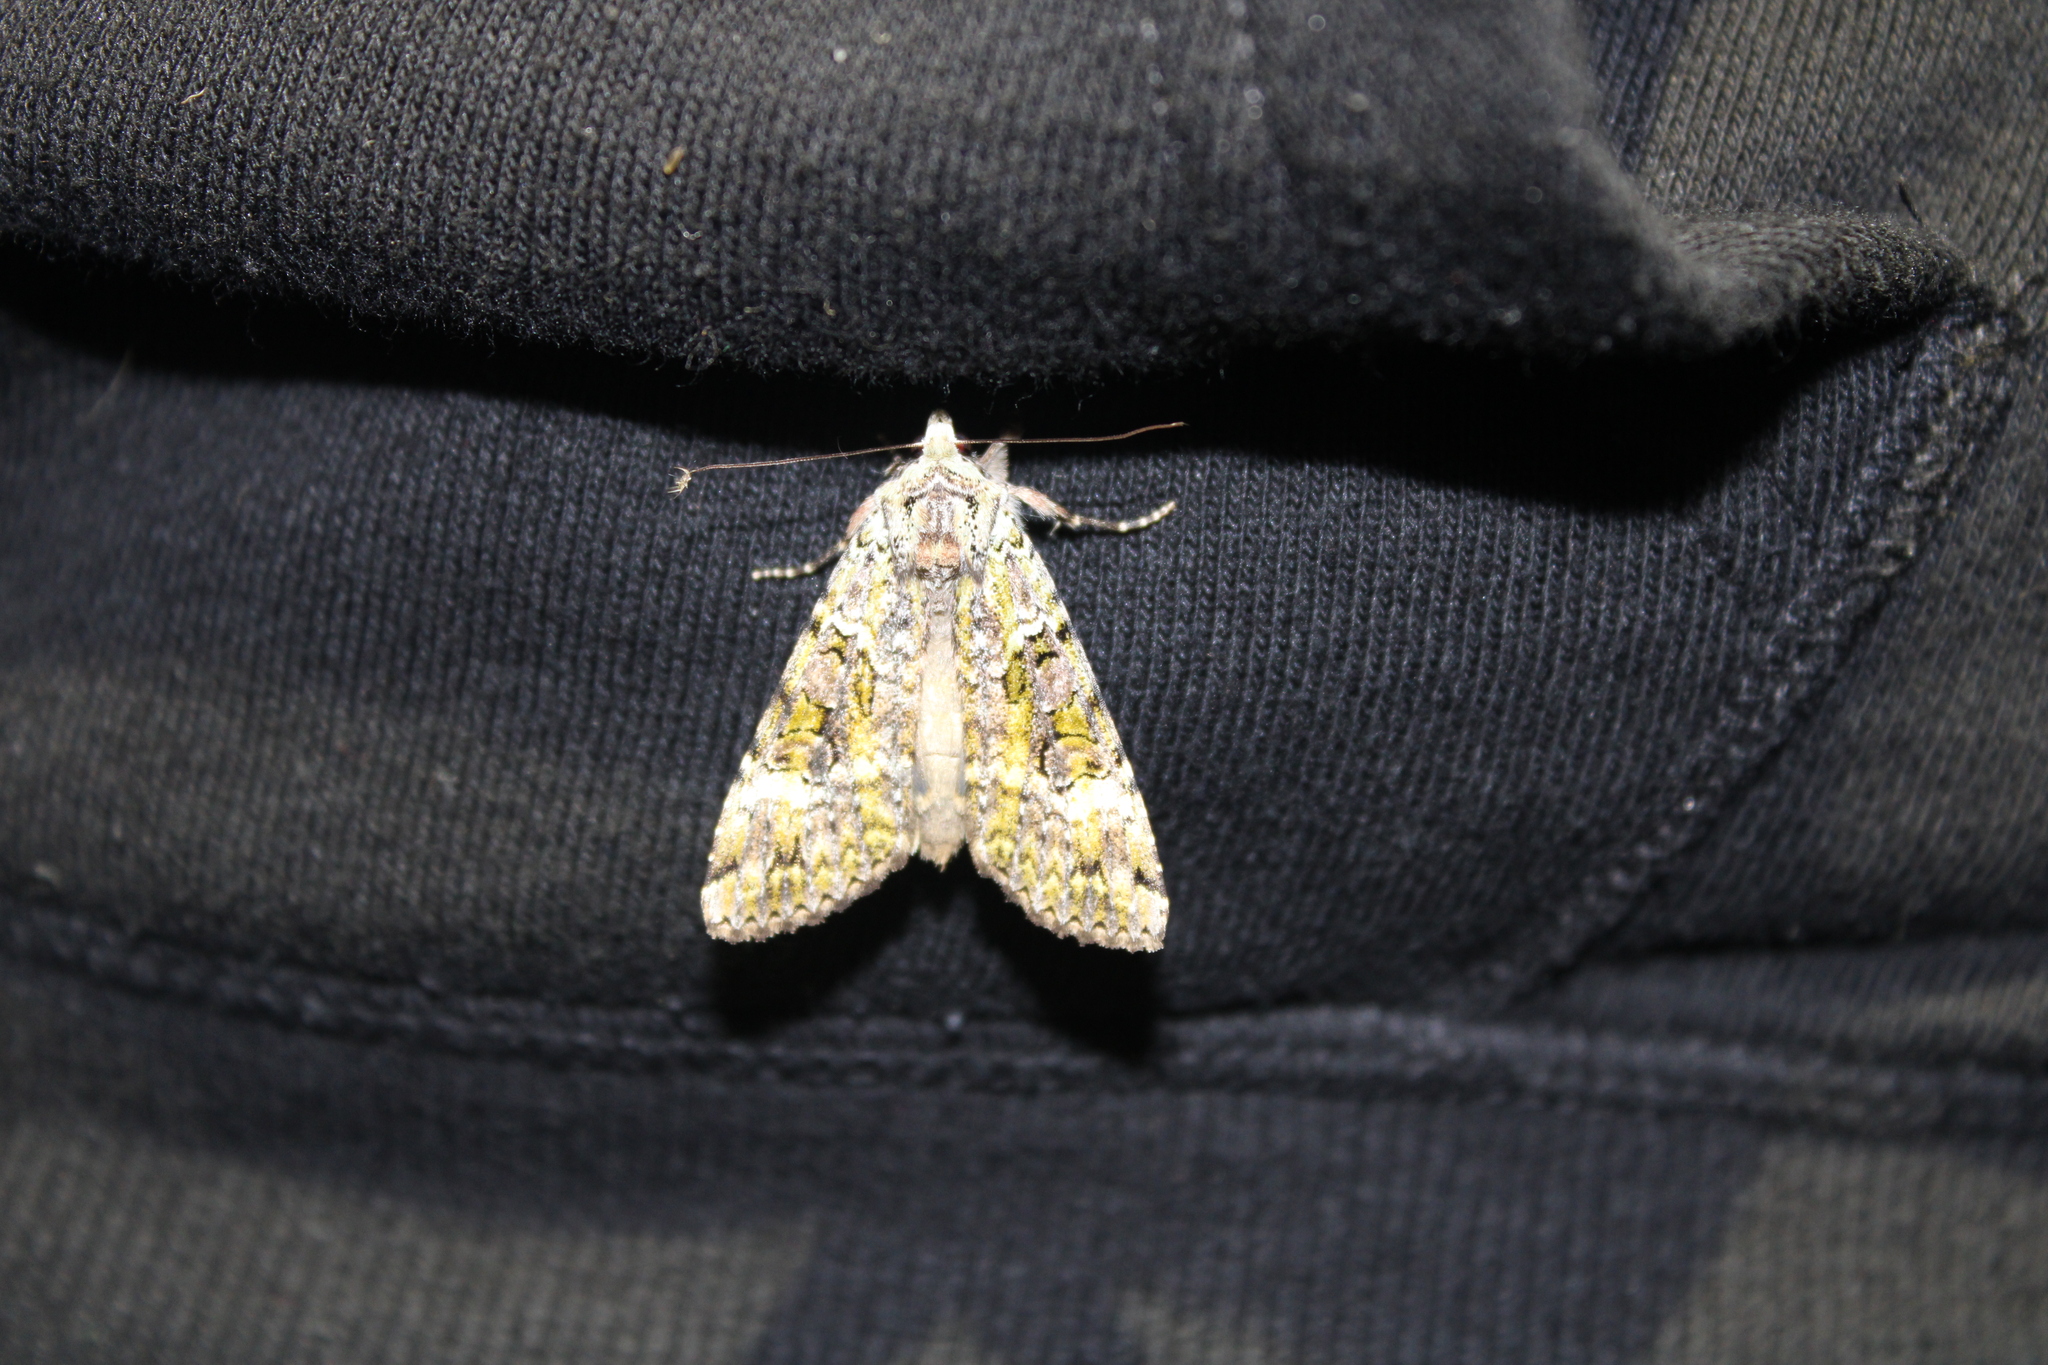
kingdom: Animalia
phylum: Arthropoda
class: Insecta
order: Lepidoptera
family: Noctuidae
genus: Anaplectoides
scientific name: Anaplectoides prasina
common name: Green arches
